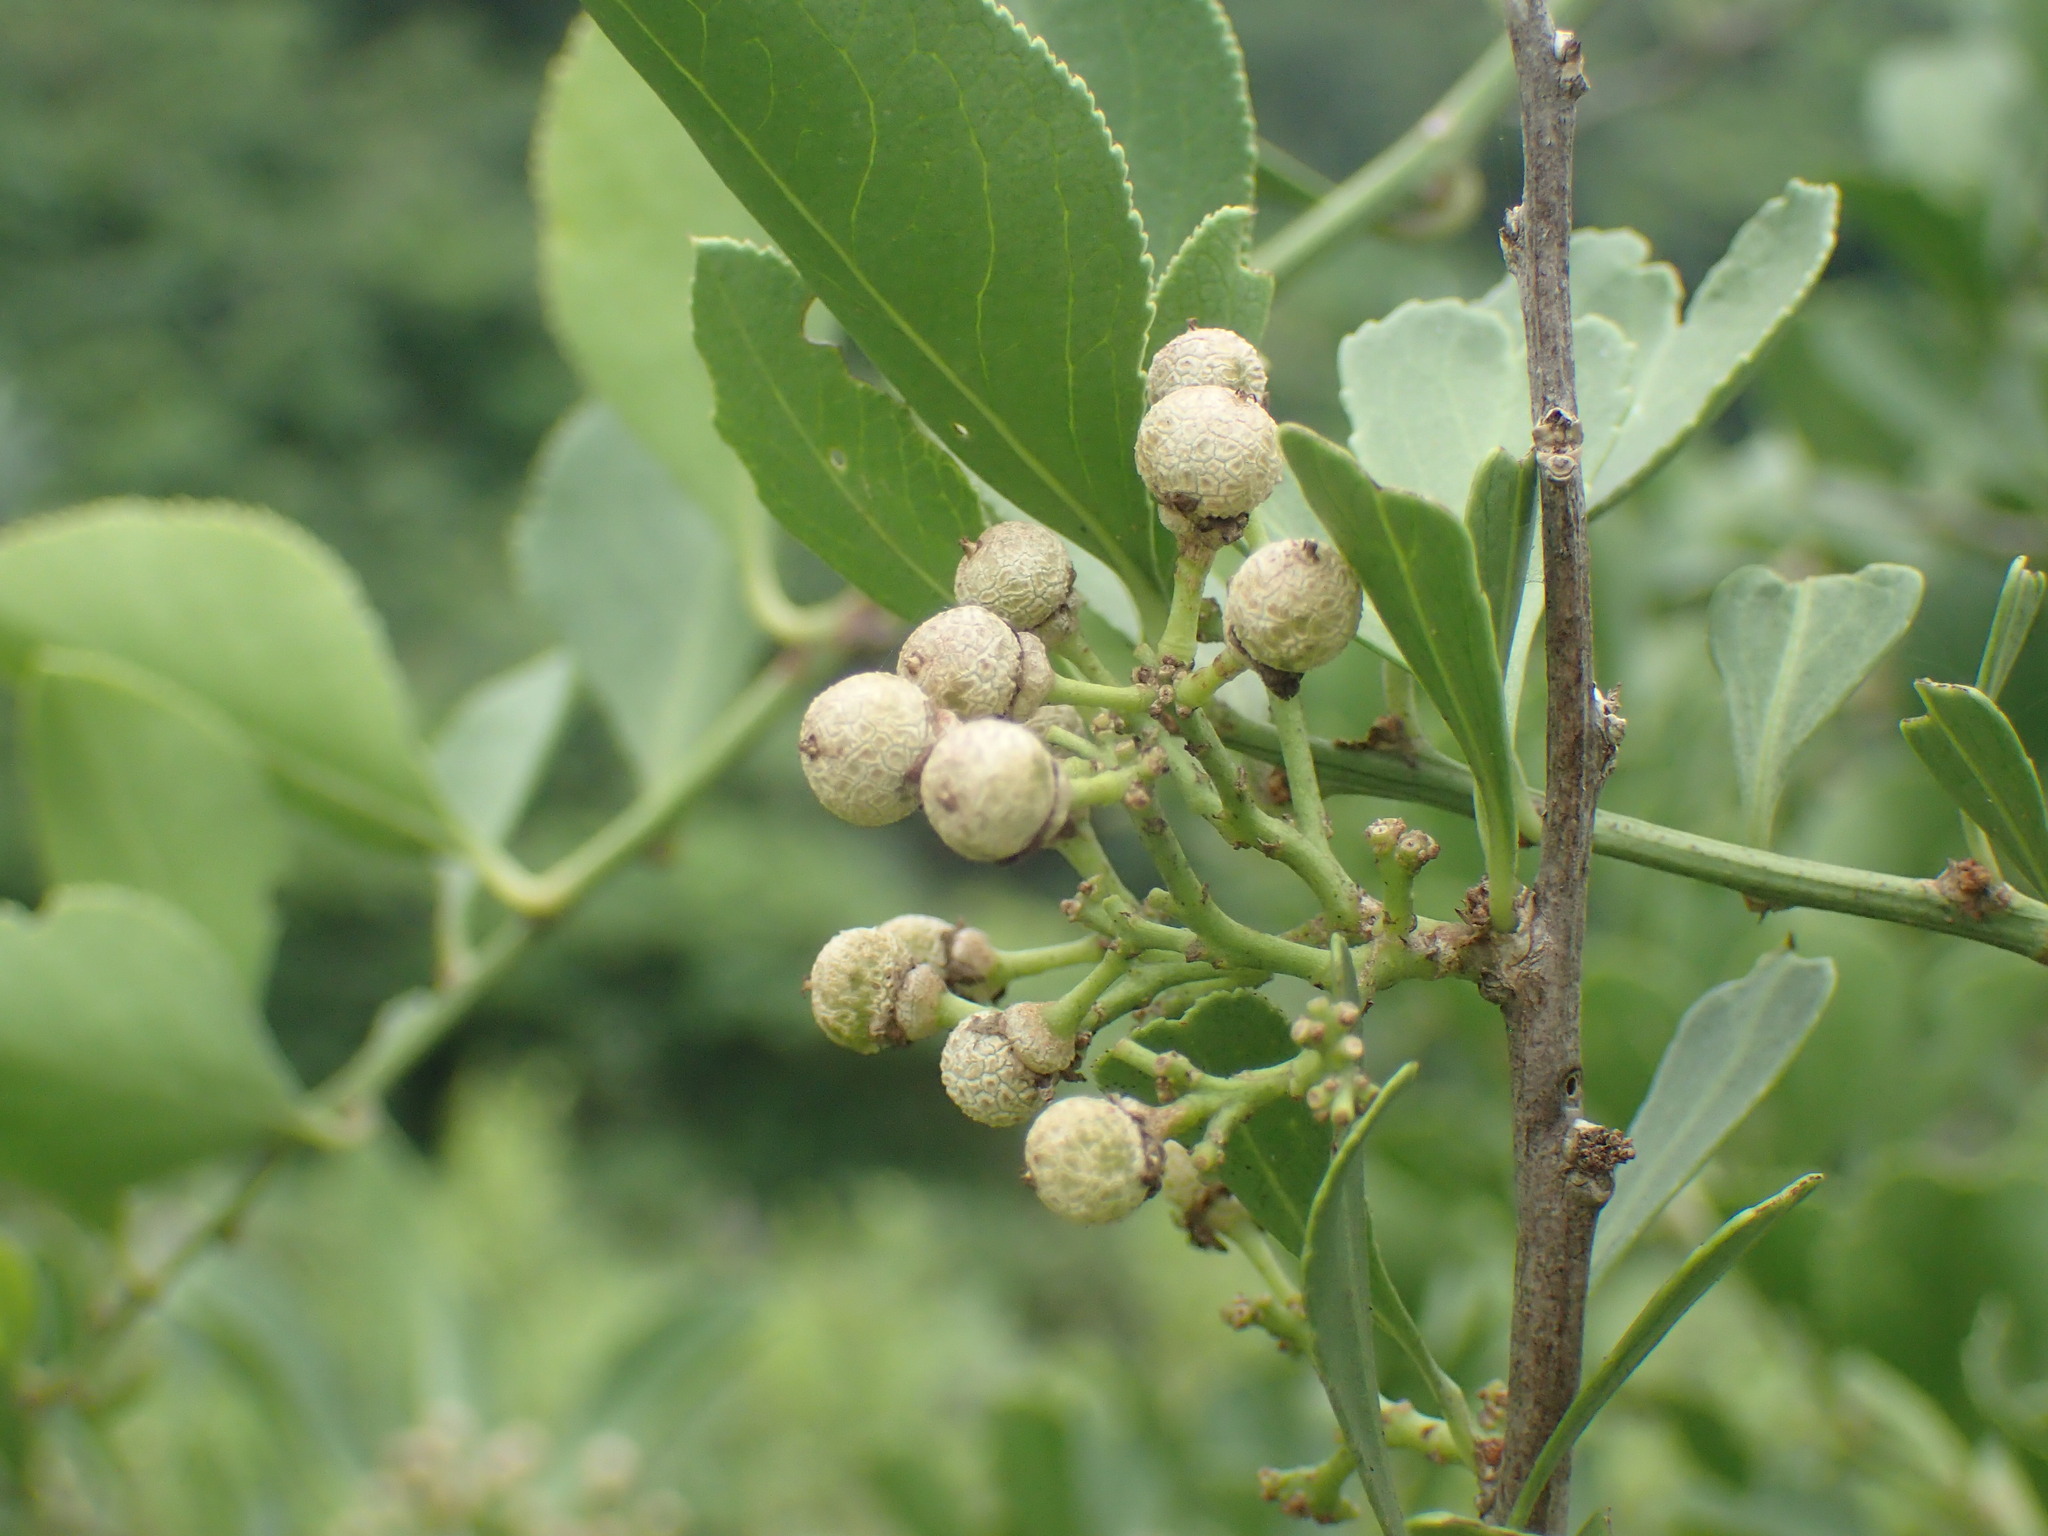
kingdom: Plantae
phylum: Tracheophyta
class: Magnoliopsida
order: Celastrales
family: Celastraceae
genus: Gymnosporia
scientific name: Gymnosporia buxifolia
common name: Common spike-thorn
